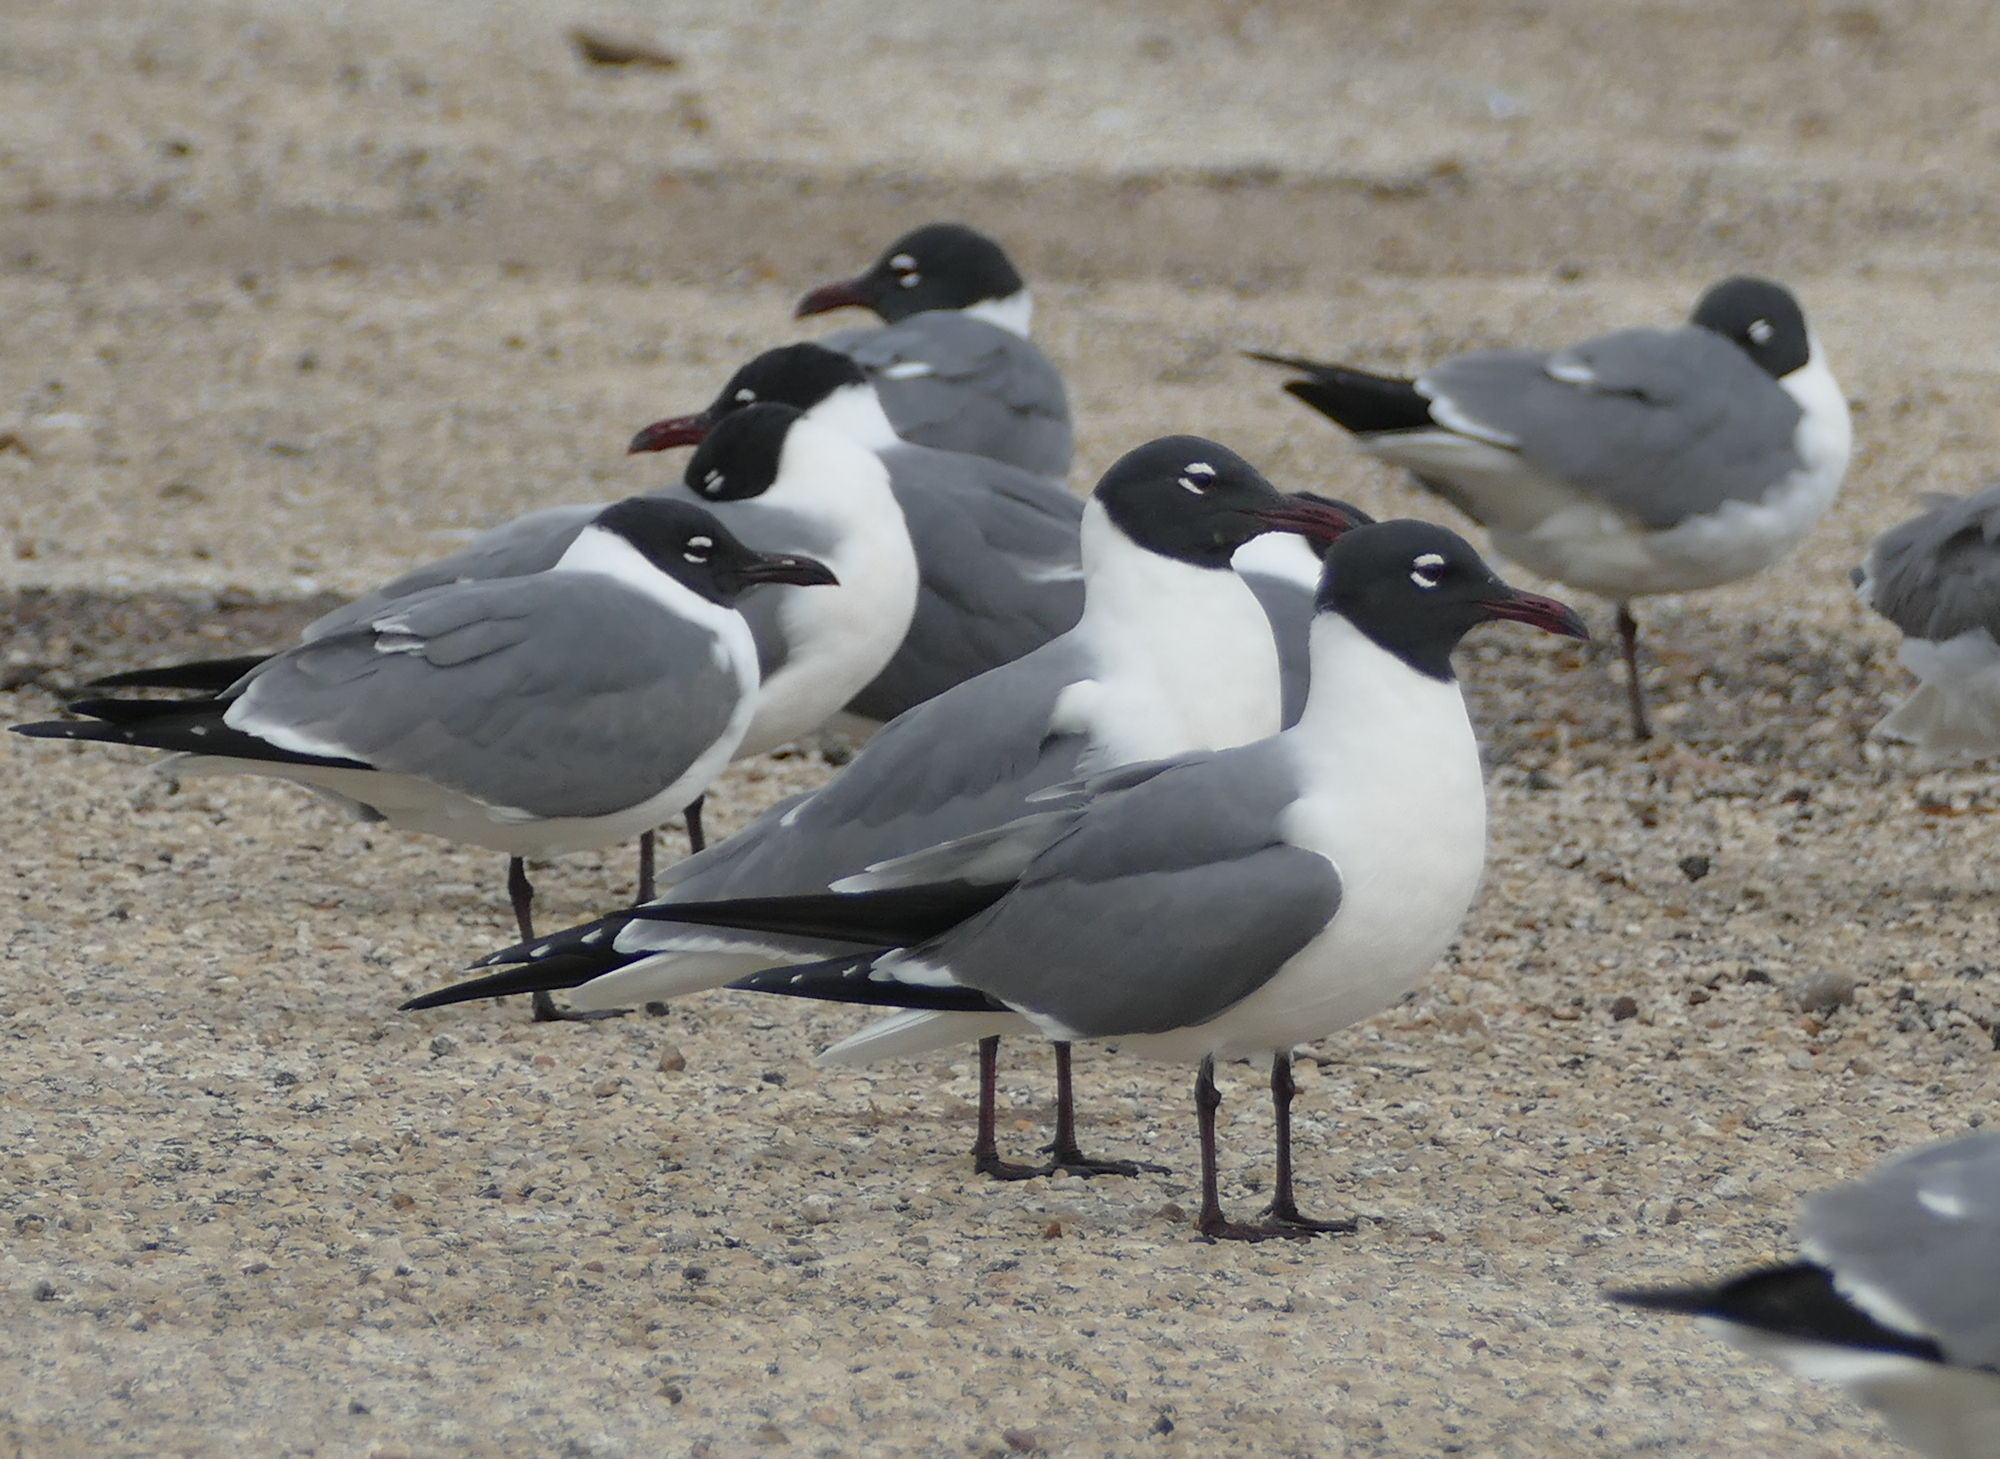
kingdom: Animalia
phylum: Chordata
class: Aves
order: Charadriiformes
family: Laridae
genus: Leucophaeus
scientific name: Leucophaeus atricilla
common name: Laughing gull
